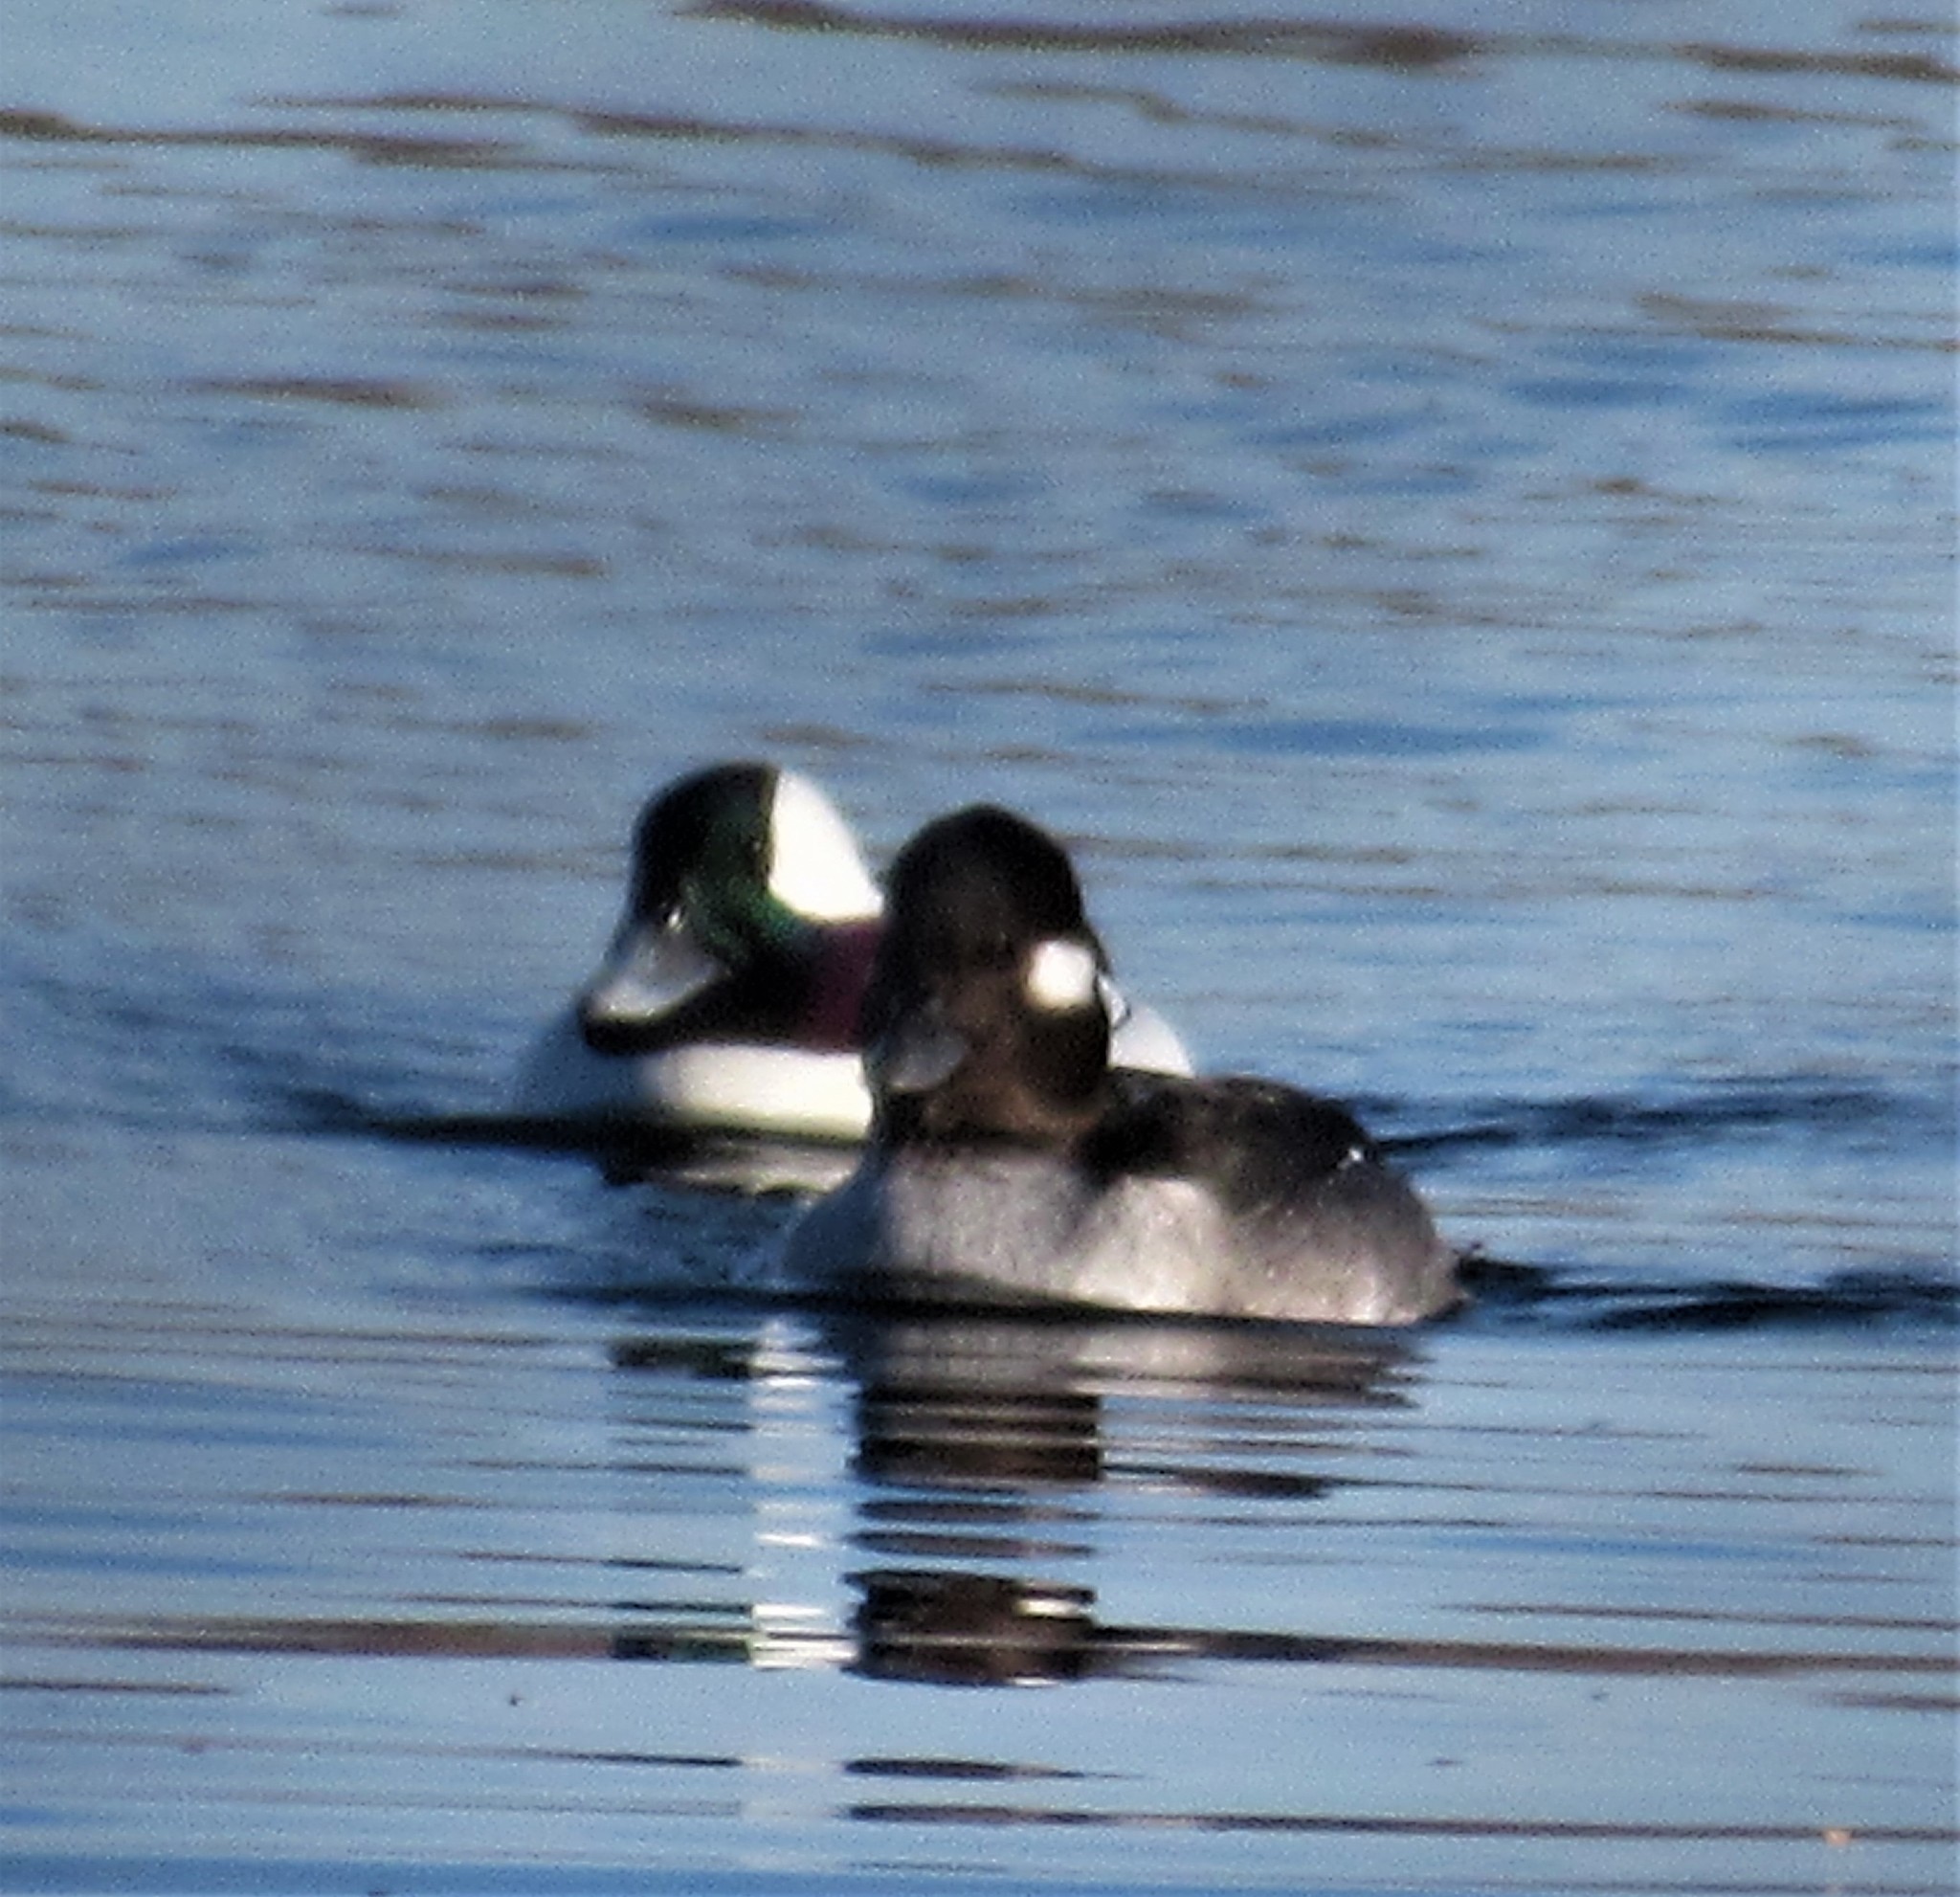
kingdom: Animalia
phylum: Chordata
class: Aves
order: Anseriformes
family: Anatidae
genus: Bucephala
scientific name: Bucephala albeola
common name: Bufflehead
